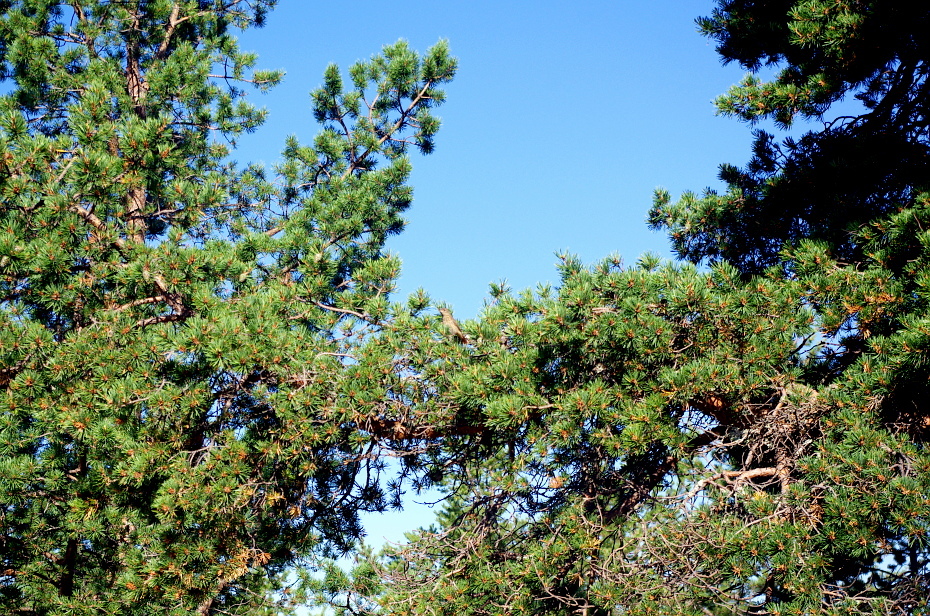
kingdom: Animalia
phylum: Chordata
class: Aves
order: Passeriformes
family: Muscicapidae
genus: Phoenicurus
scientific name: Phoenicurus phoenicurus
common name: Common redstart
